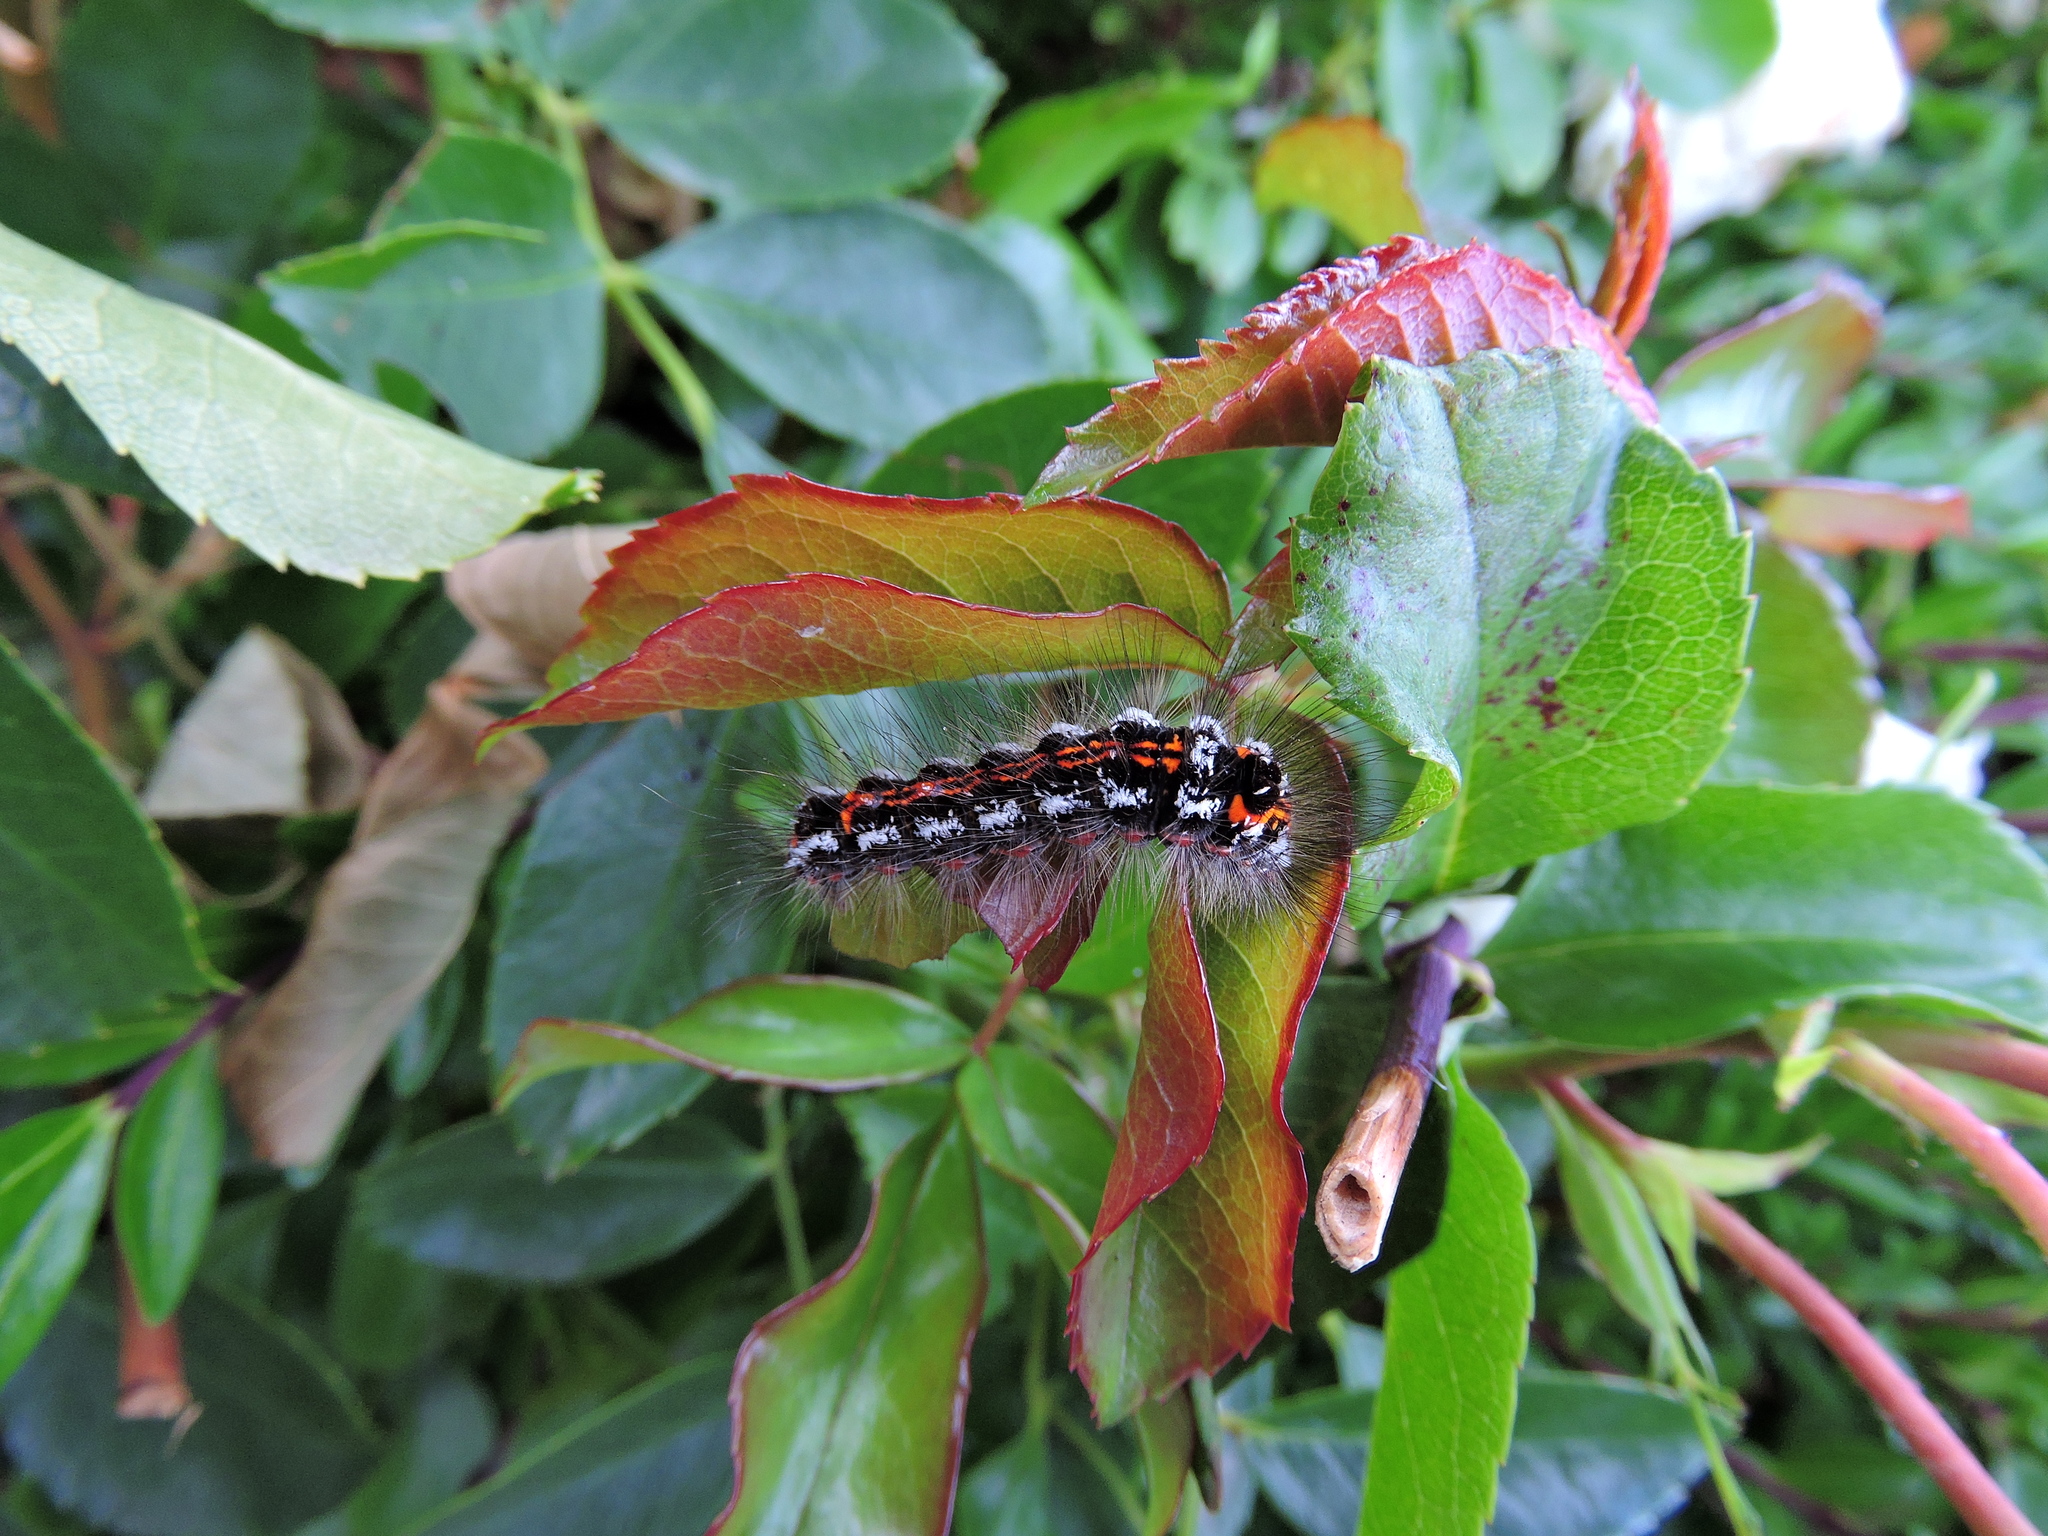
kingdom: Animalia
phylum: Arthropoda
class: Insecta
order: Lepidoptera
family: Erebidae
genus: Sphrageidus
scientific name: Sphrageidus similis
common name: Yellow-tail
